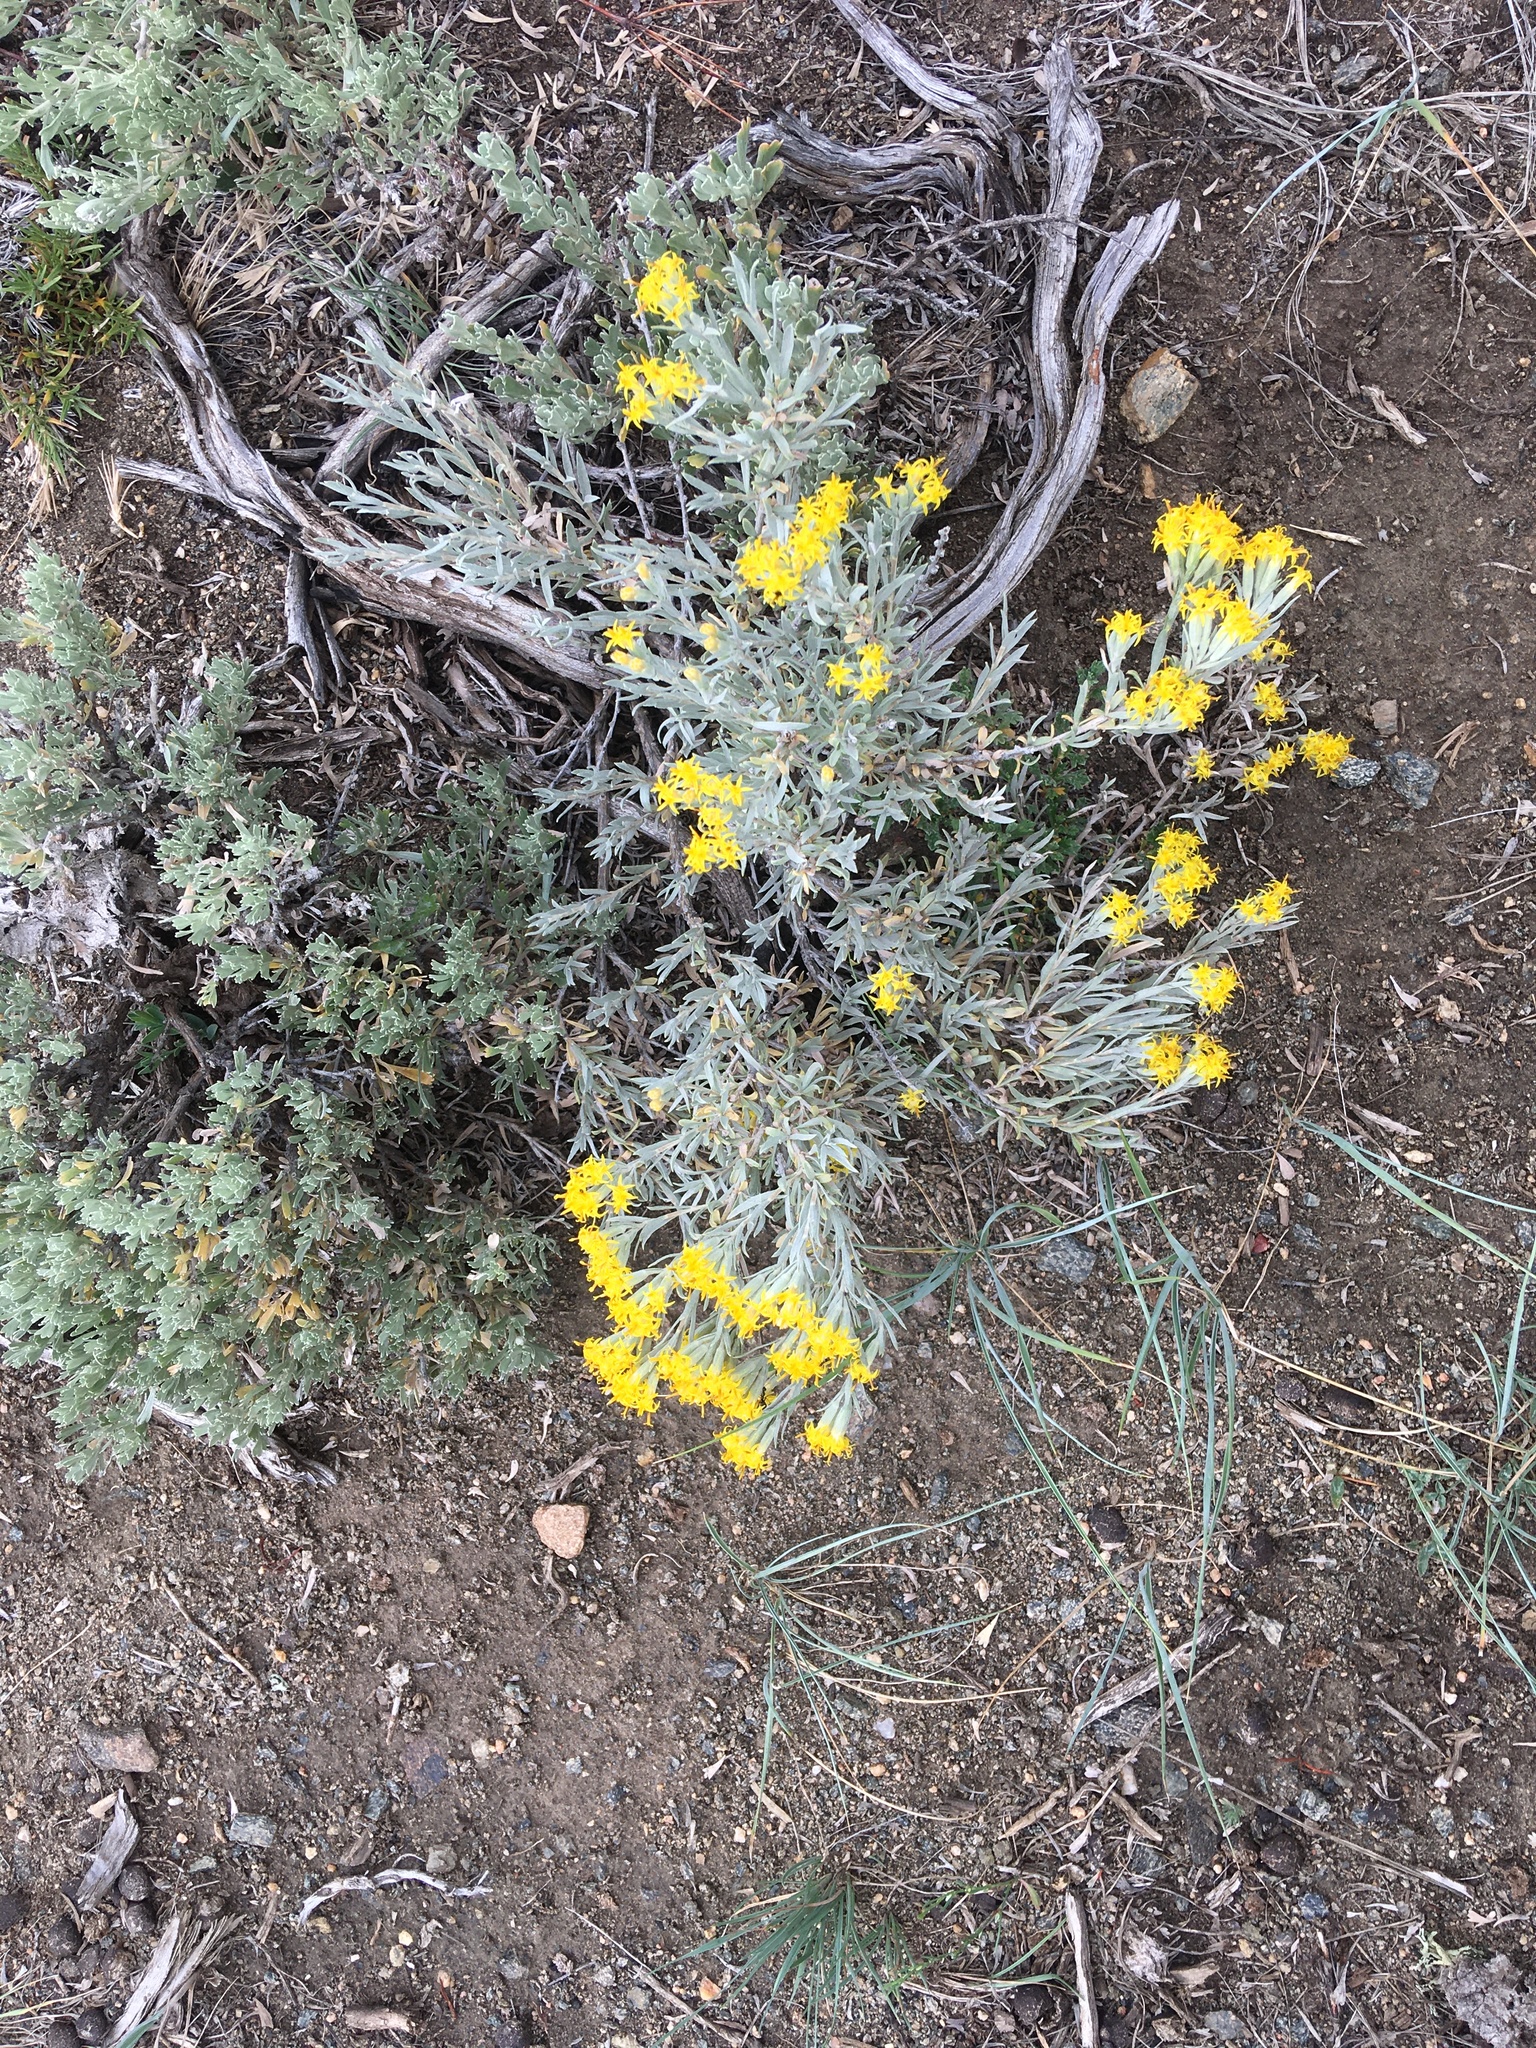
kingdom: Plantae
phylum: Tracheophyta
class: Magnoliopsida
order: Asterales
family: Asteraceae
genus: Tetradymia
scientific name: Tetradymia canescens
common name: Spineless horsebrush
